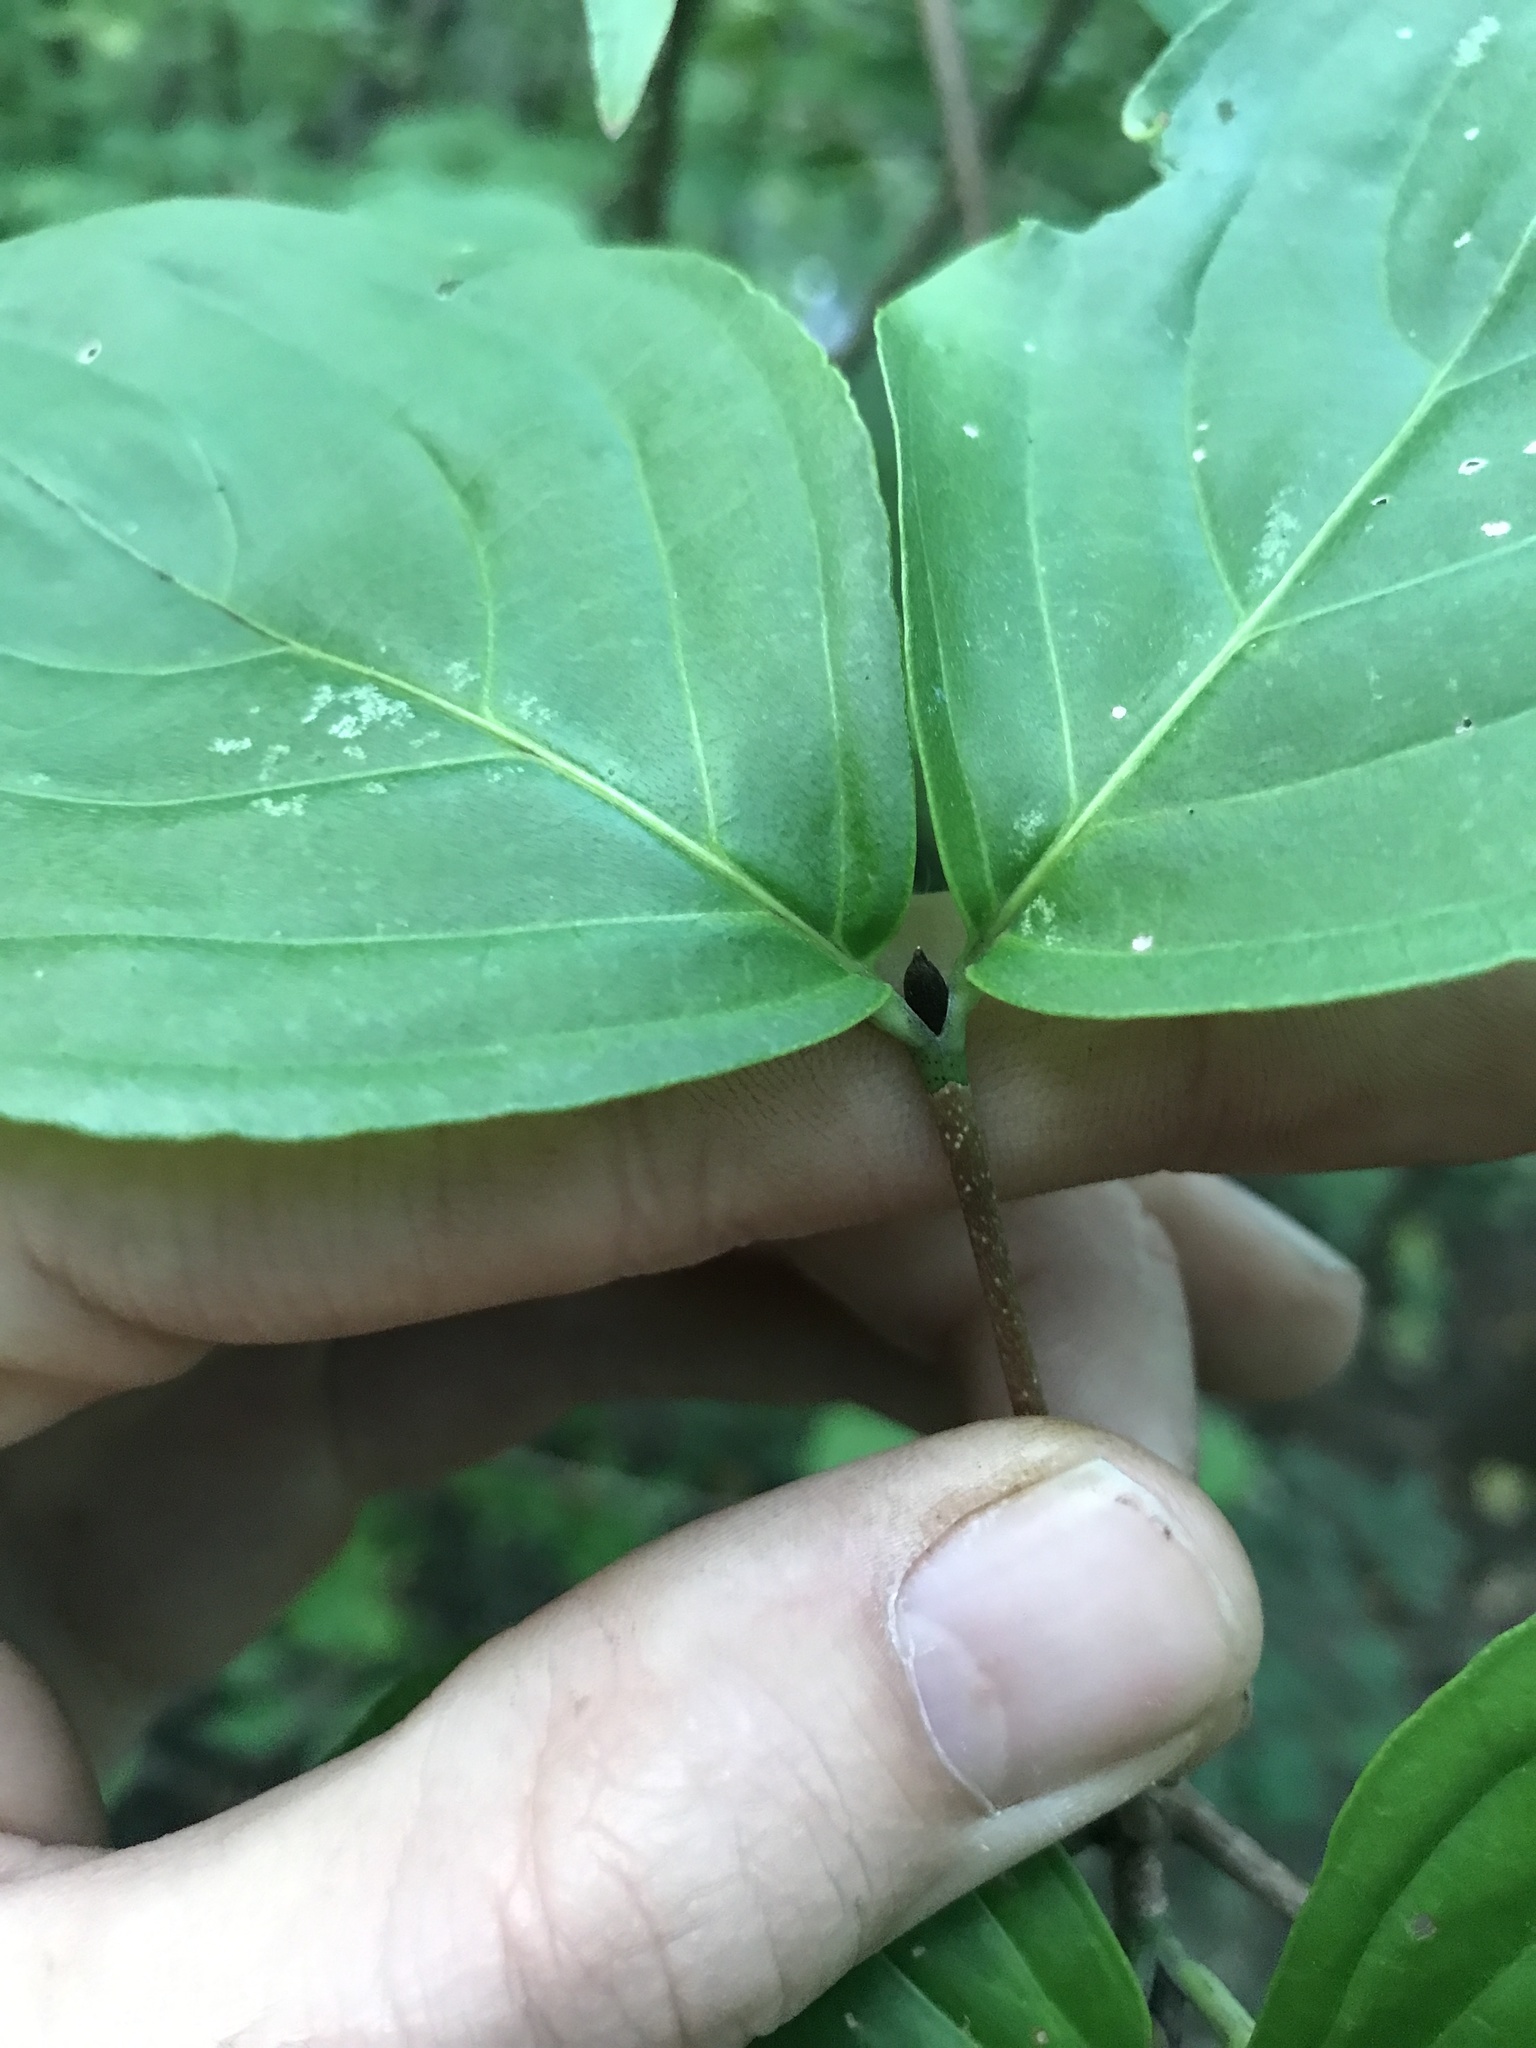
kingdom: Plantae
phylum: Tracheophyta
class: Magnoliopsida
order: Cornales
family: Cornaceae
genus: Cornus
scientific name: Cornus kousa
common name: Japanese dogwood
